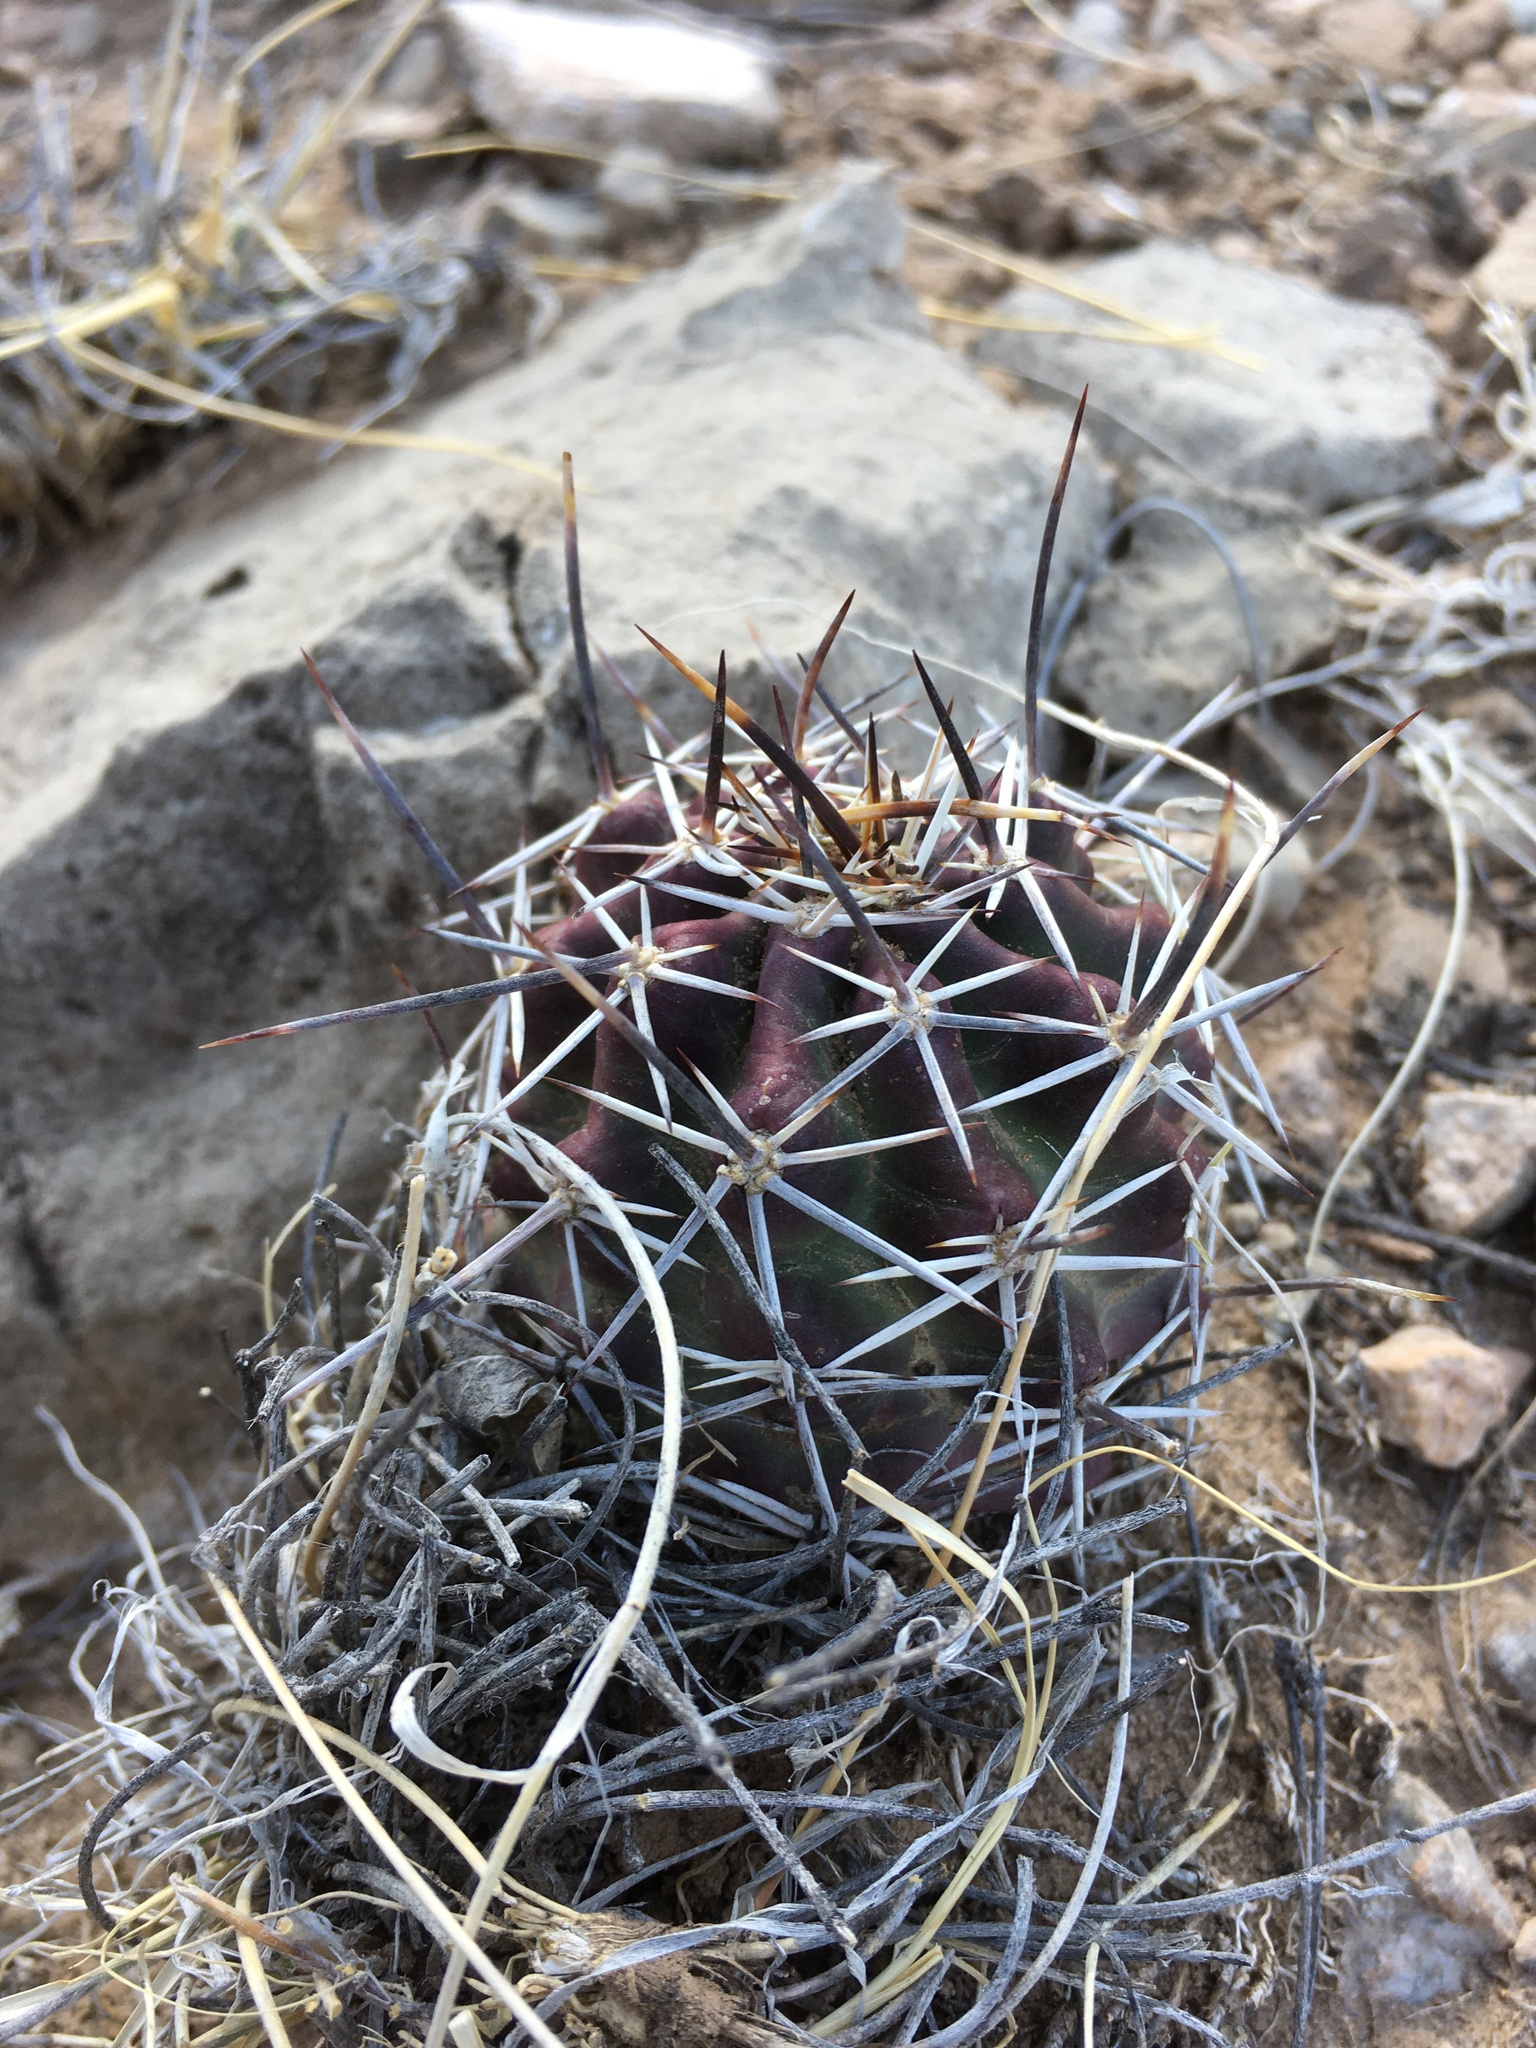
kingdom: Plantae
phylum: Tracheophyta
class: Magnoliopsida
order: Caryophyllales
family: Cactaceae
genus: Echinocereus
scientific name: Echinocereus fendleri
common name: Fendler's hedgehog cactus
